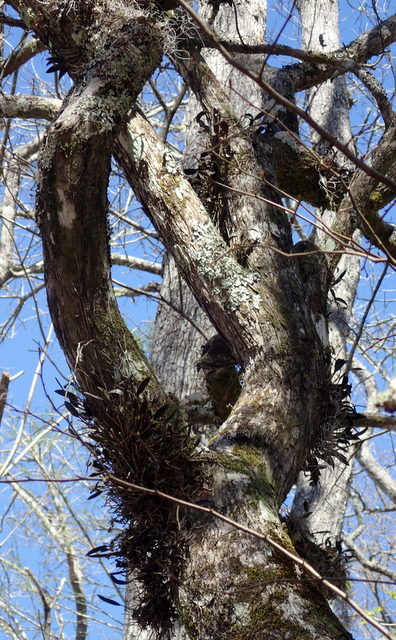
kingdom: Plantae
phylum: Tracheophyta
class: Liliopsida
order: Asparagales
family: Orchidaceae
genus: Epidendrum
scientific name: Epidendrum conopseum
